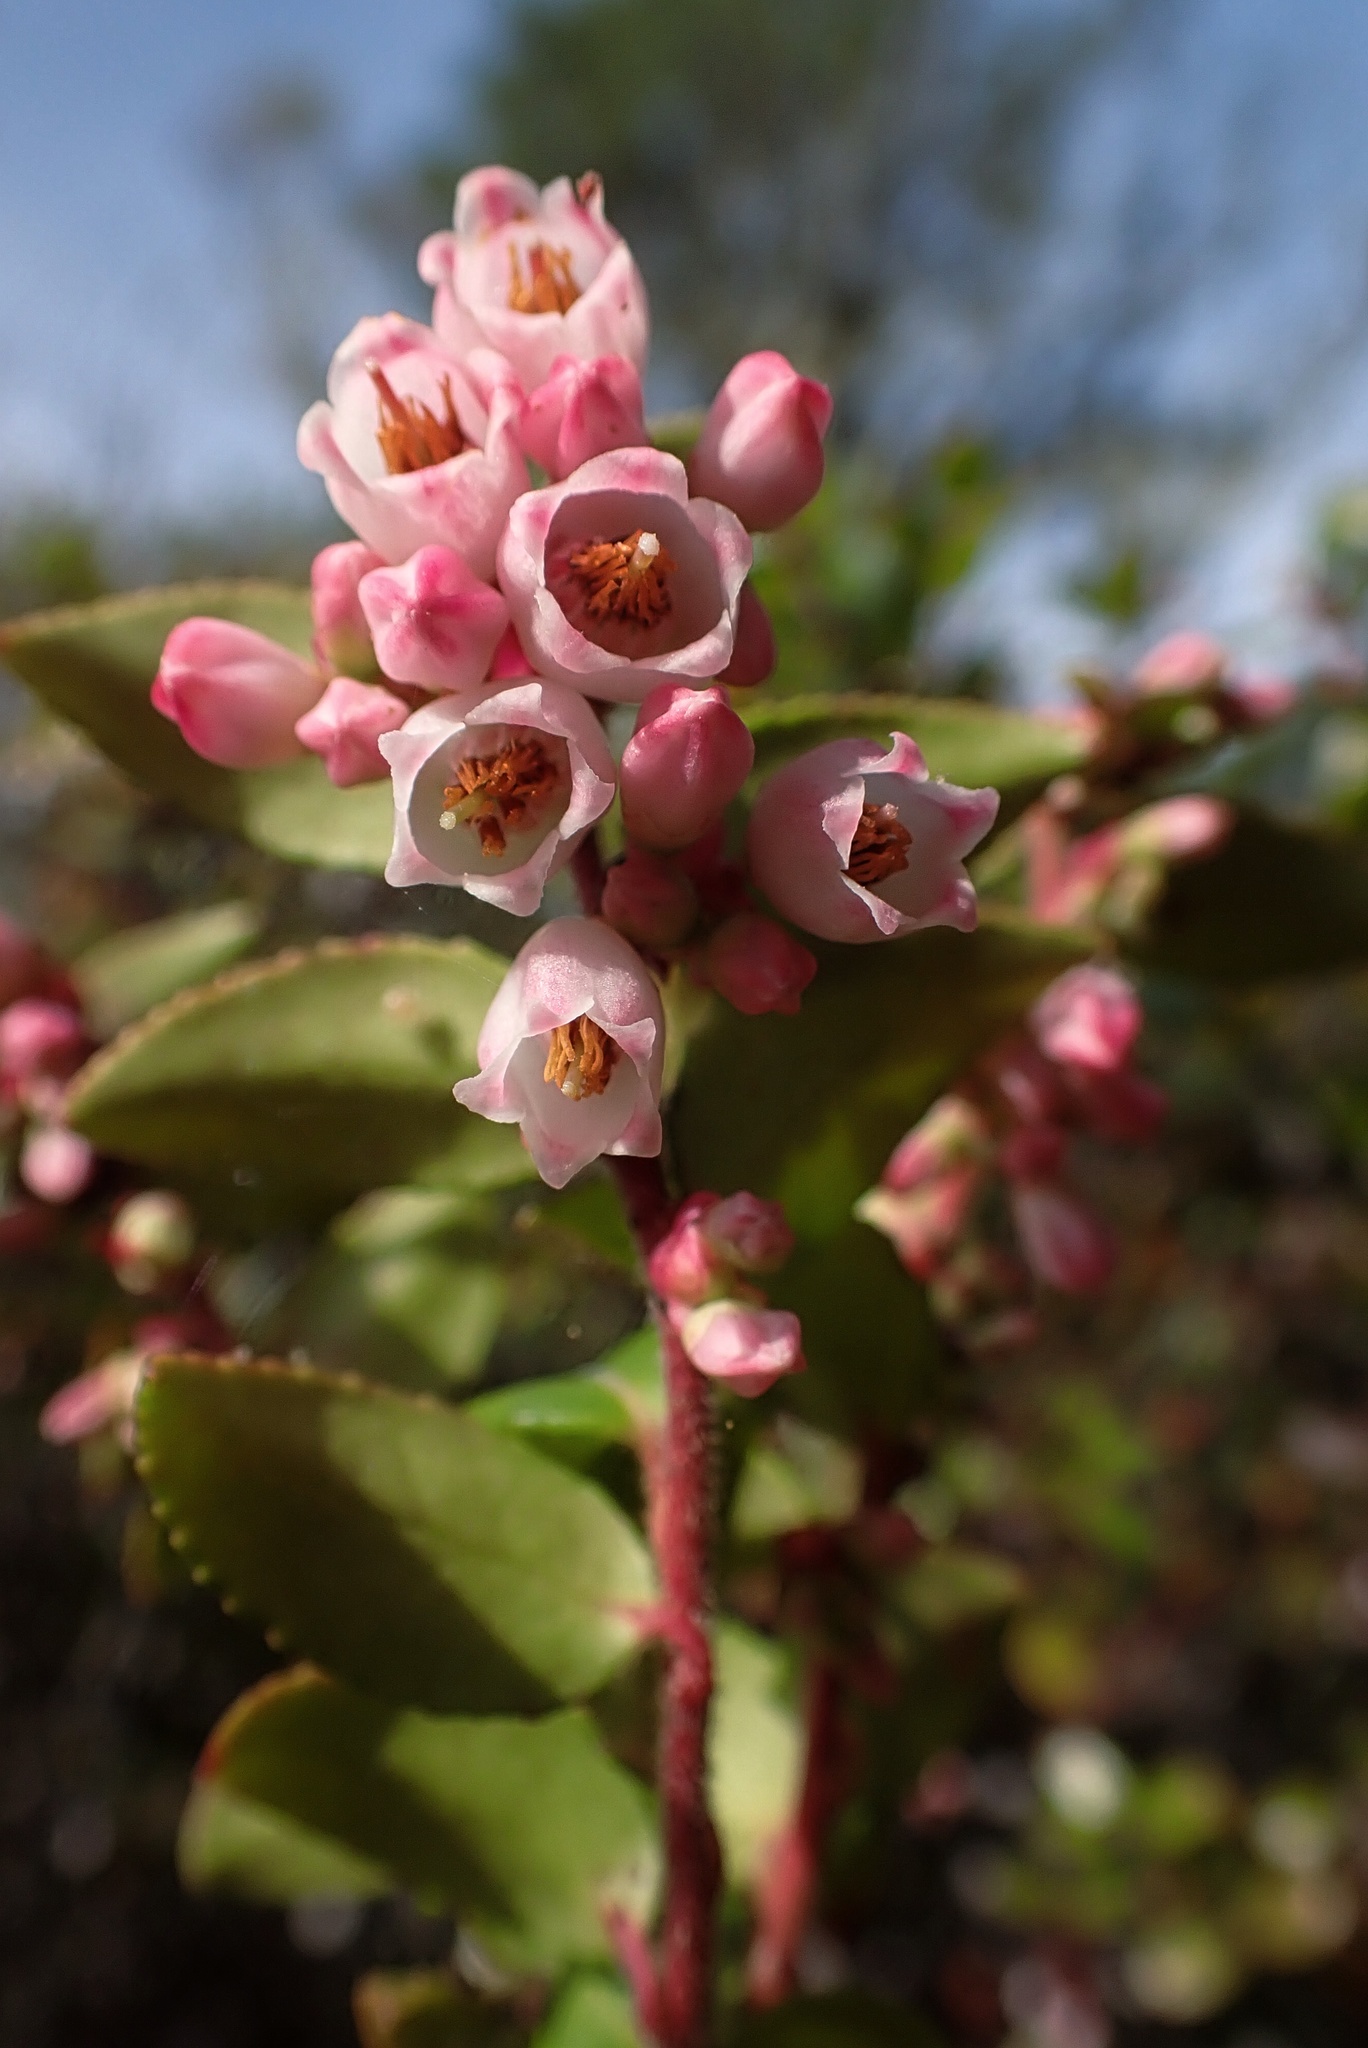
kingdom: Plantae
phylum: Tracheophyta
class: Magnoliopsida
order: Ericales
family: Ericaceae
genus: Vaccinium
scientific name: Vaccinium ovatum
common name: California-huckleberry
